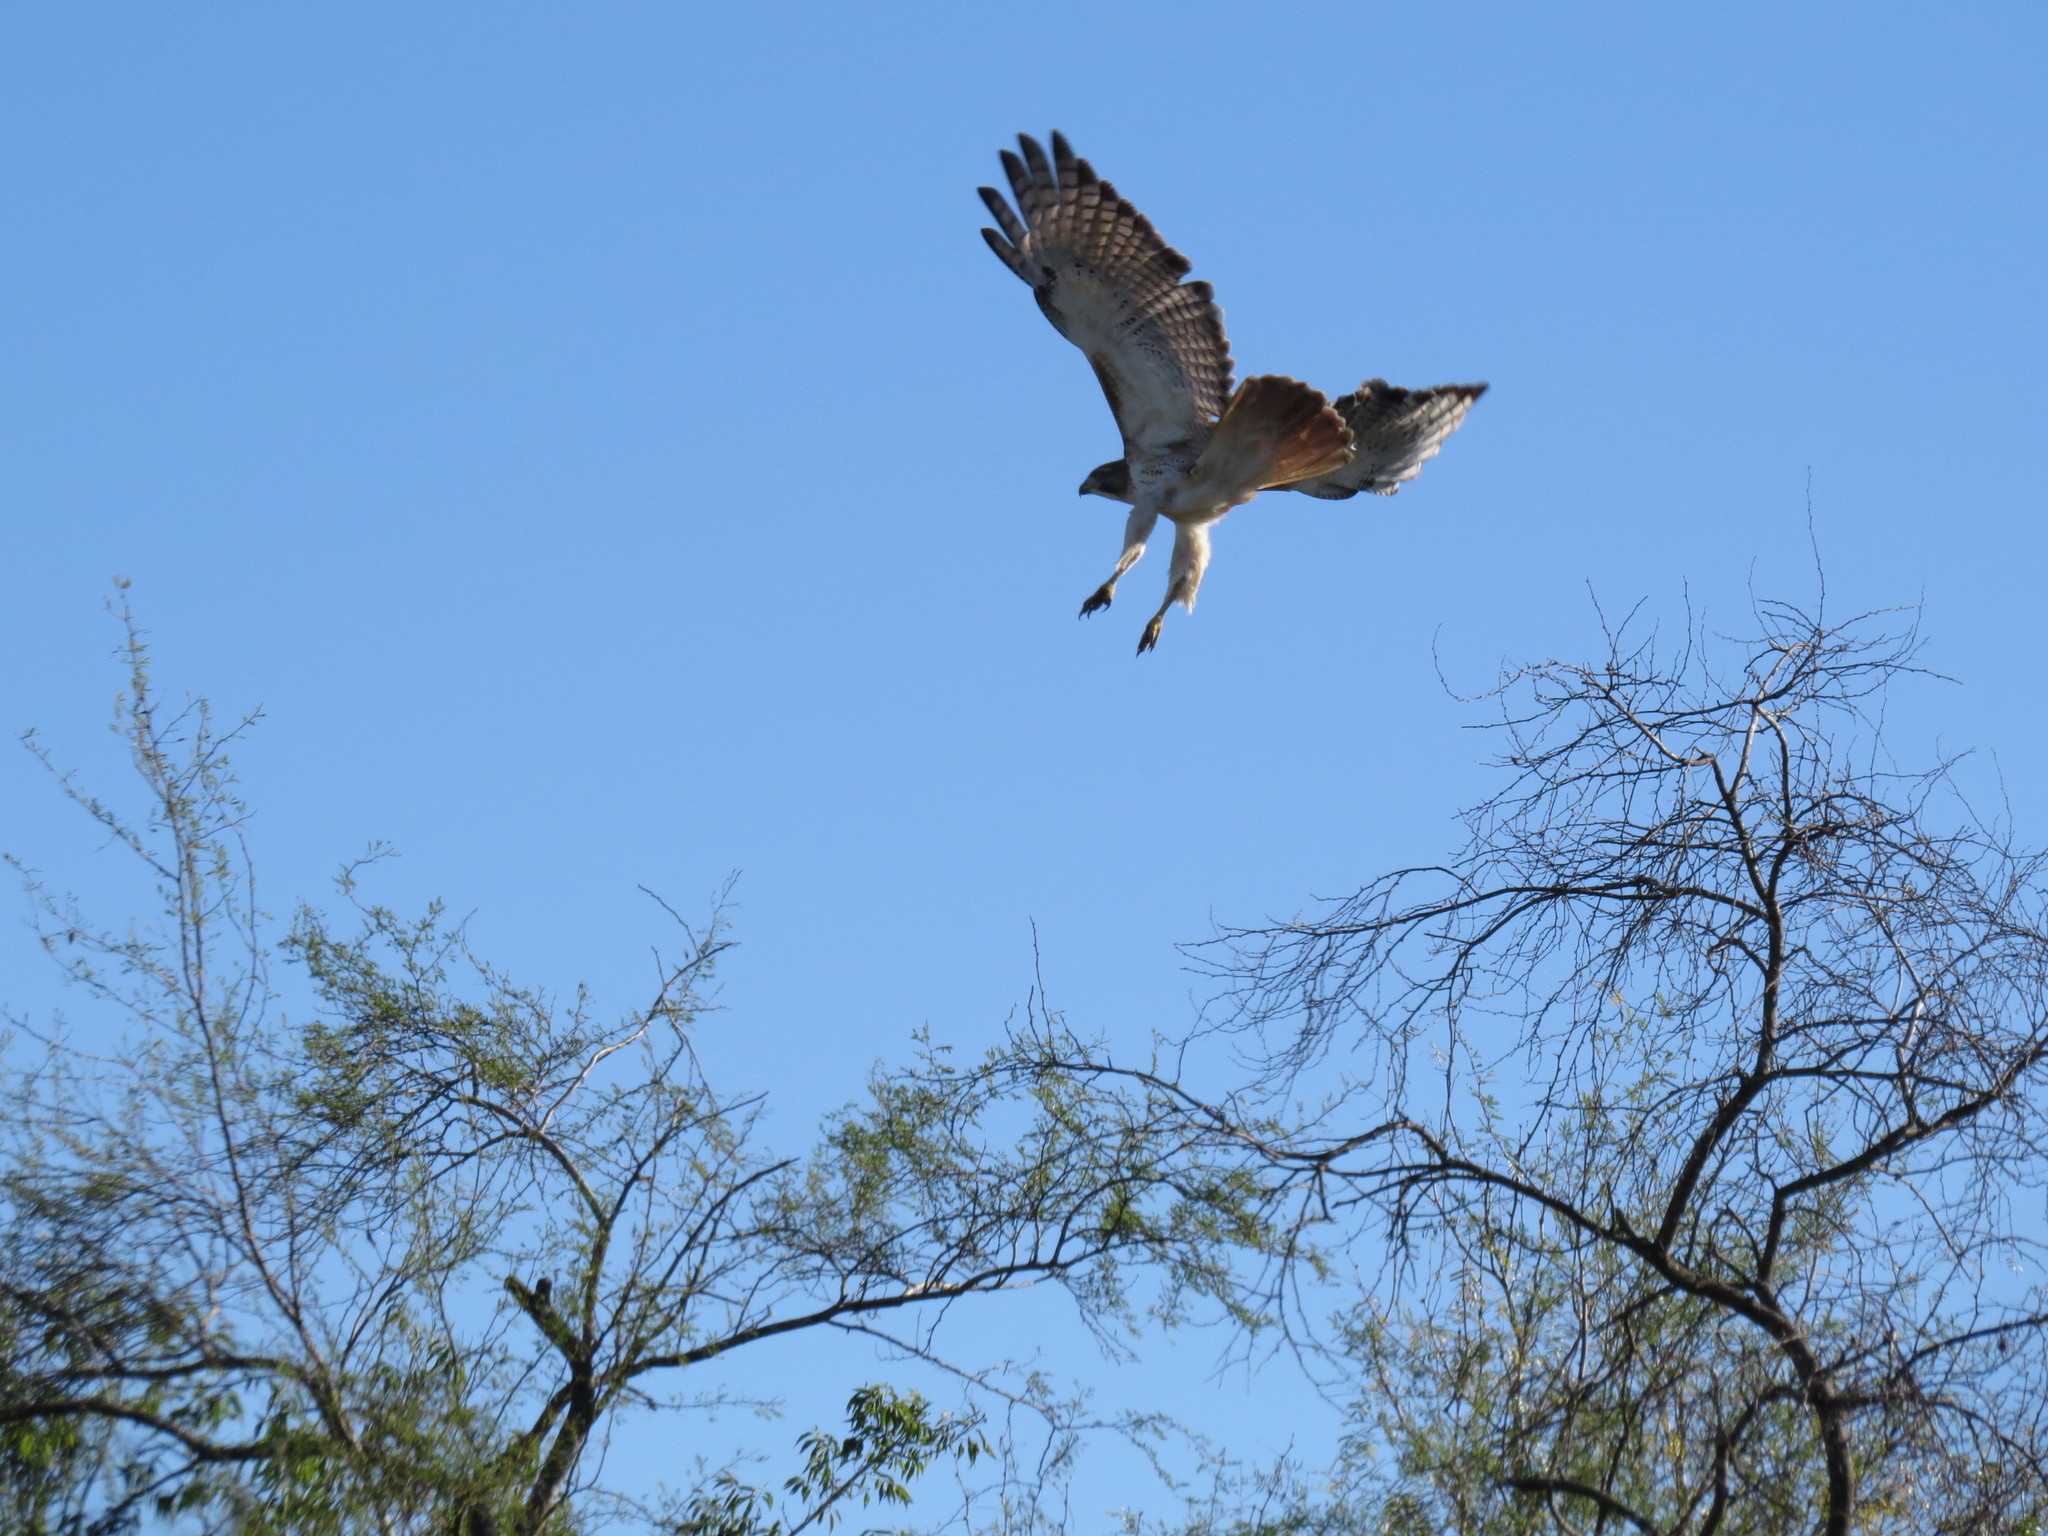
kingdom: Animalia
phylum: Chordata
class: Aves
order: Accipitriformes
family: Accipitridae
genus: Buteo
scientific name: Buteo jamaicensis
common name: Red-tailed hawk
